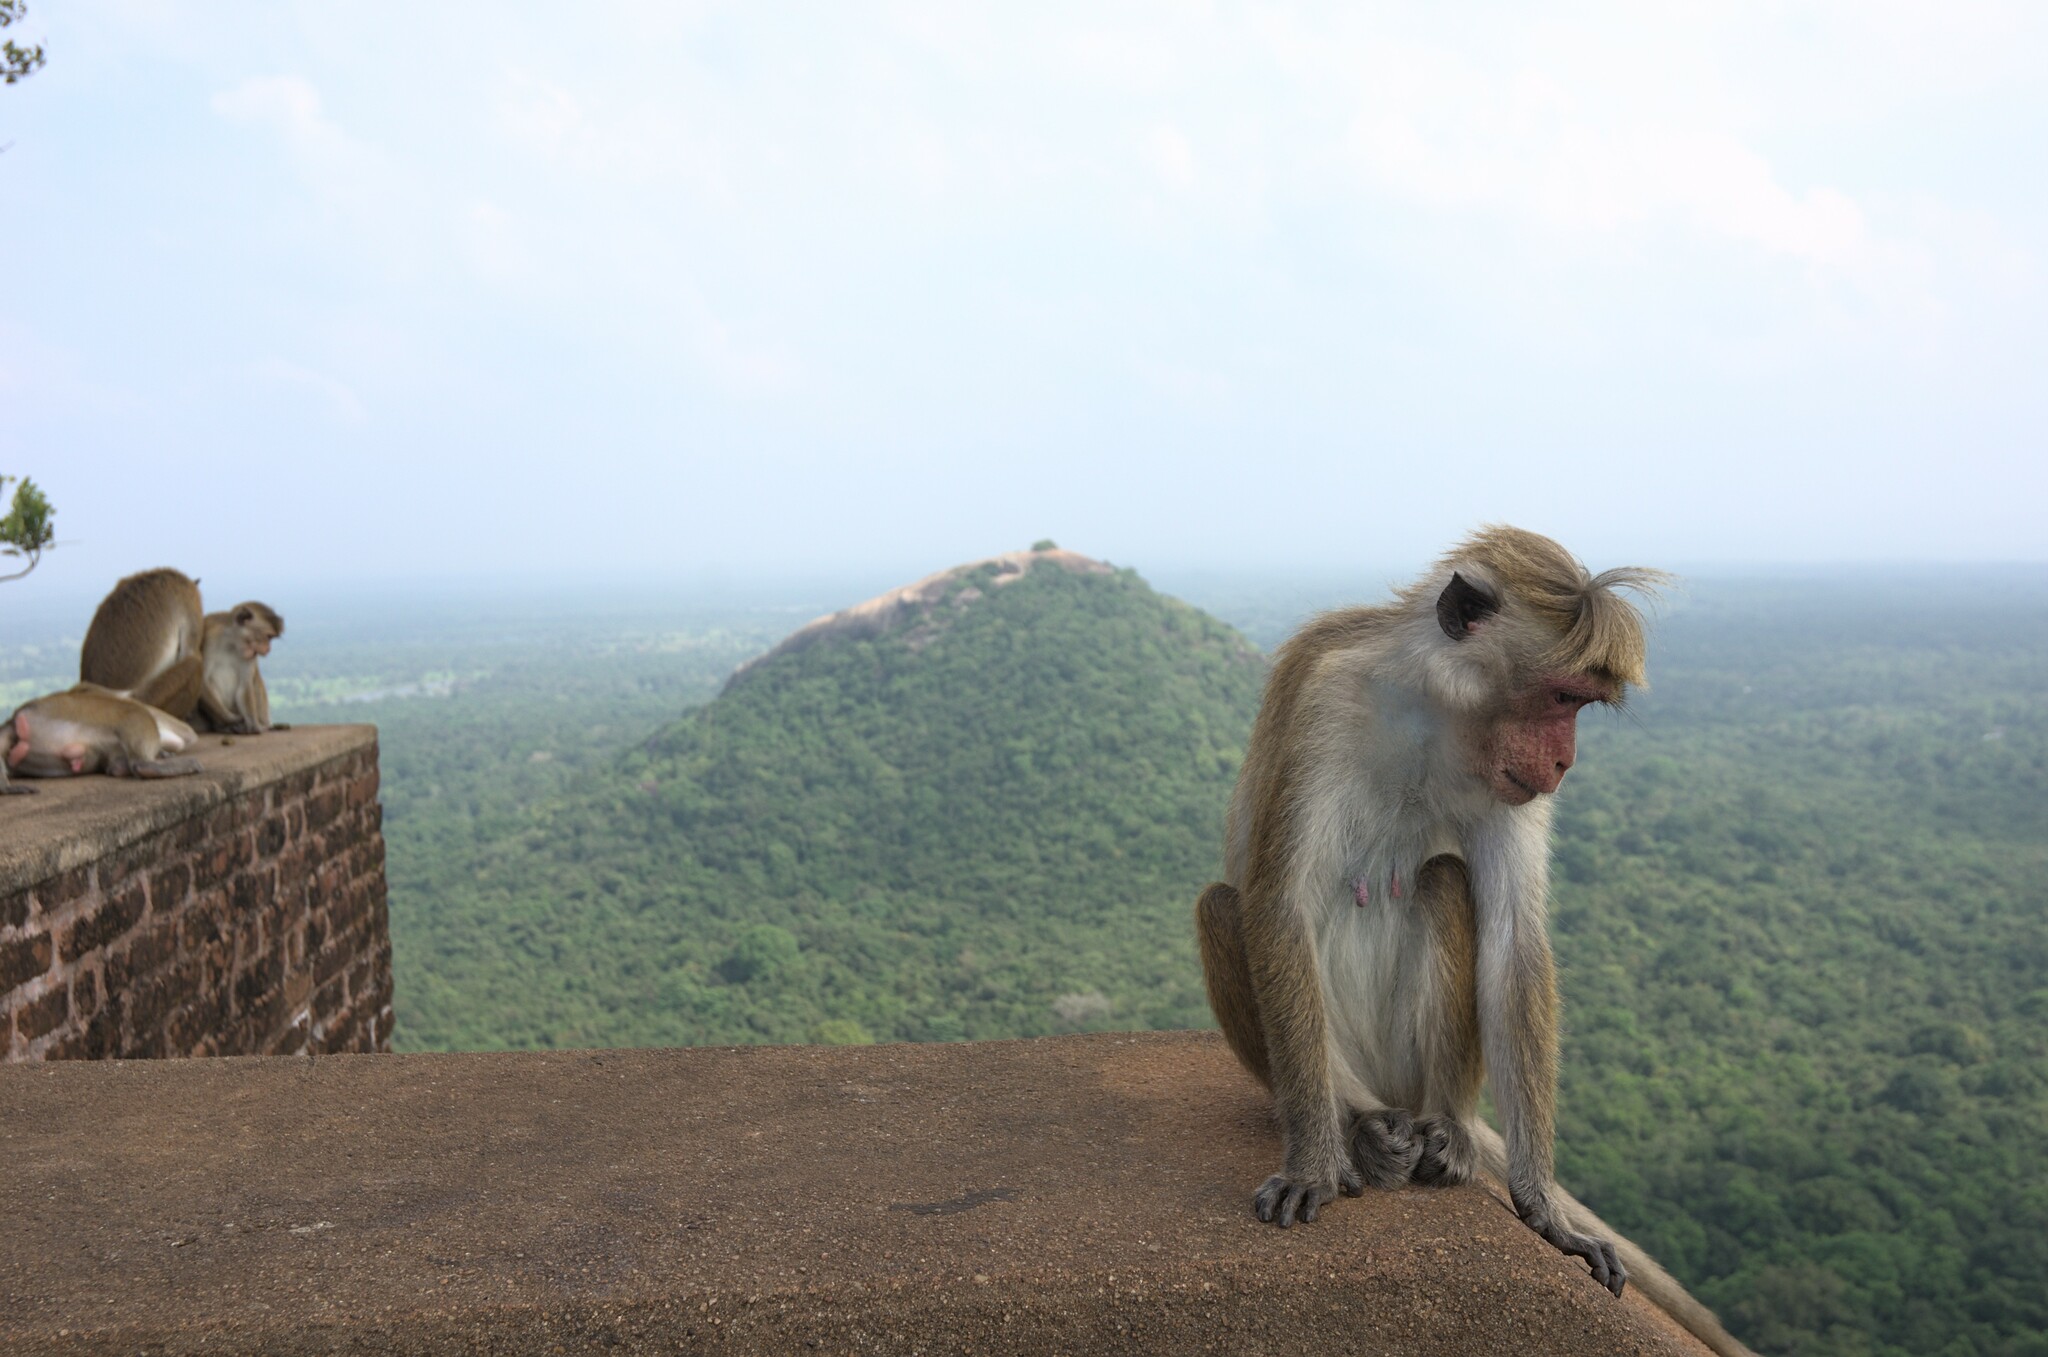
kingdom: Animalia
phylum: Chordata
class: Mammalia
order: Primates
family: Cercopithecidae
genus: Macaca
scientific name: Macaca sinica
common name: Toque macaque
